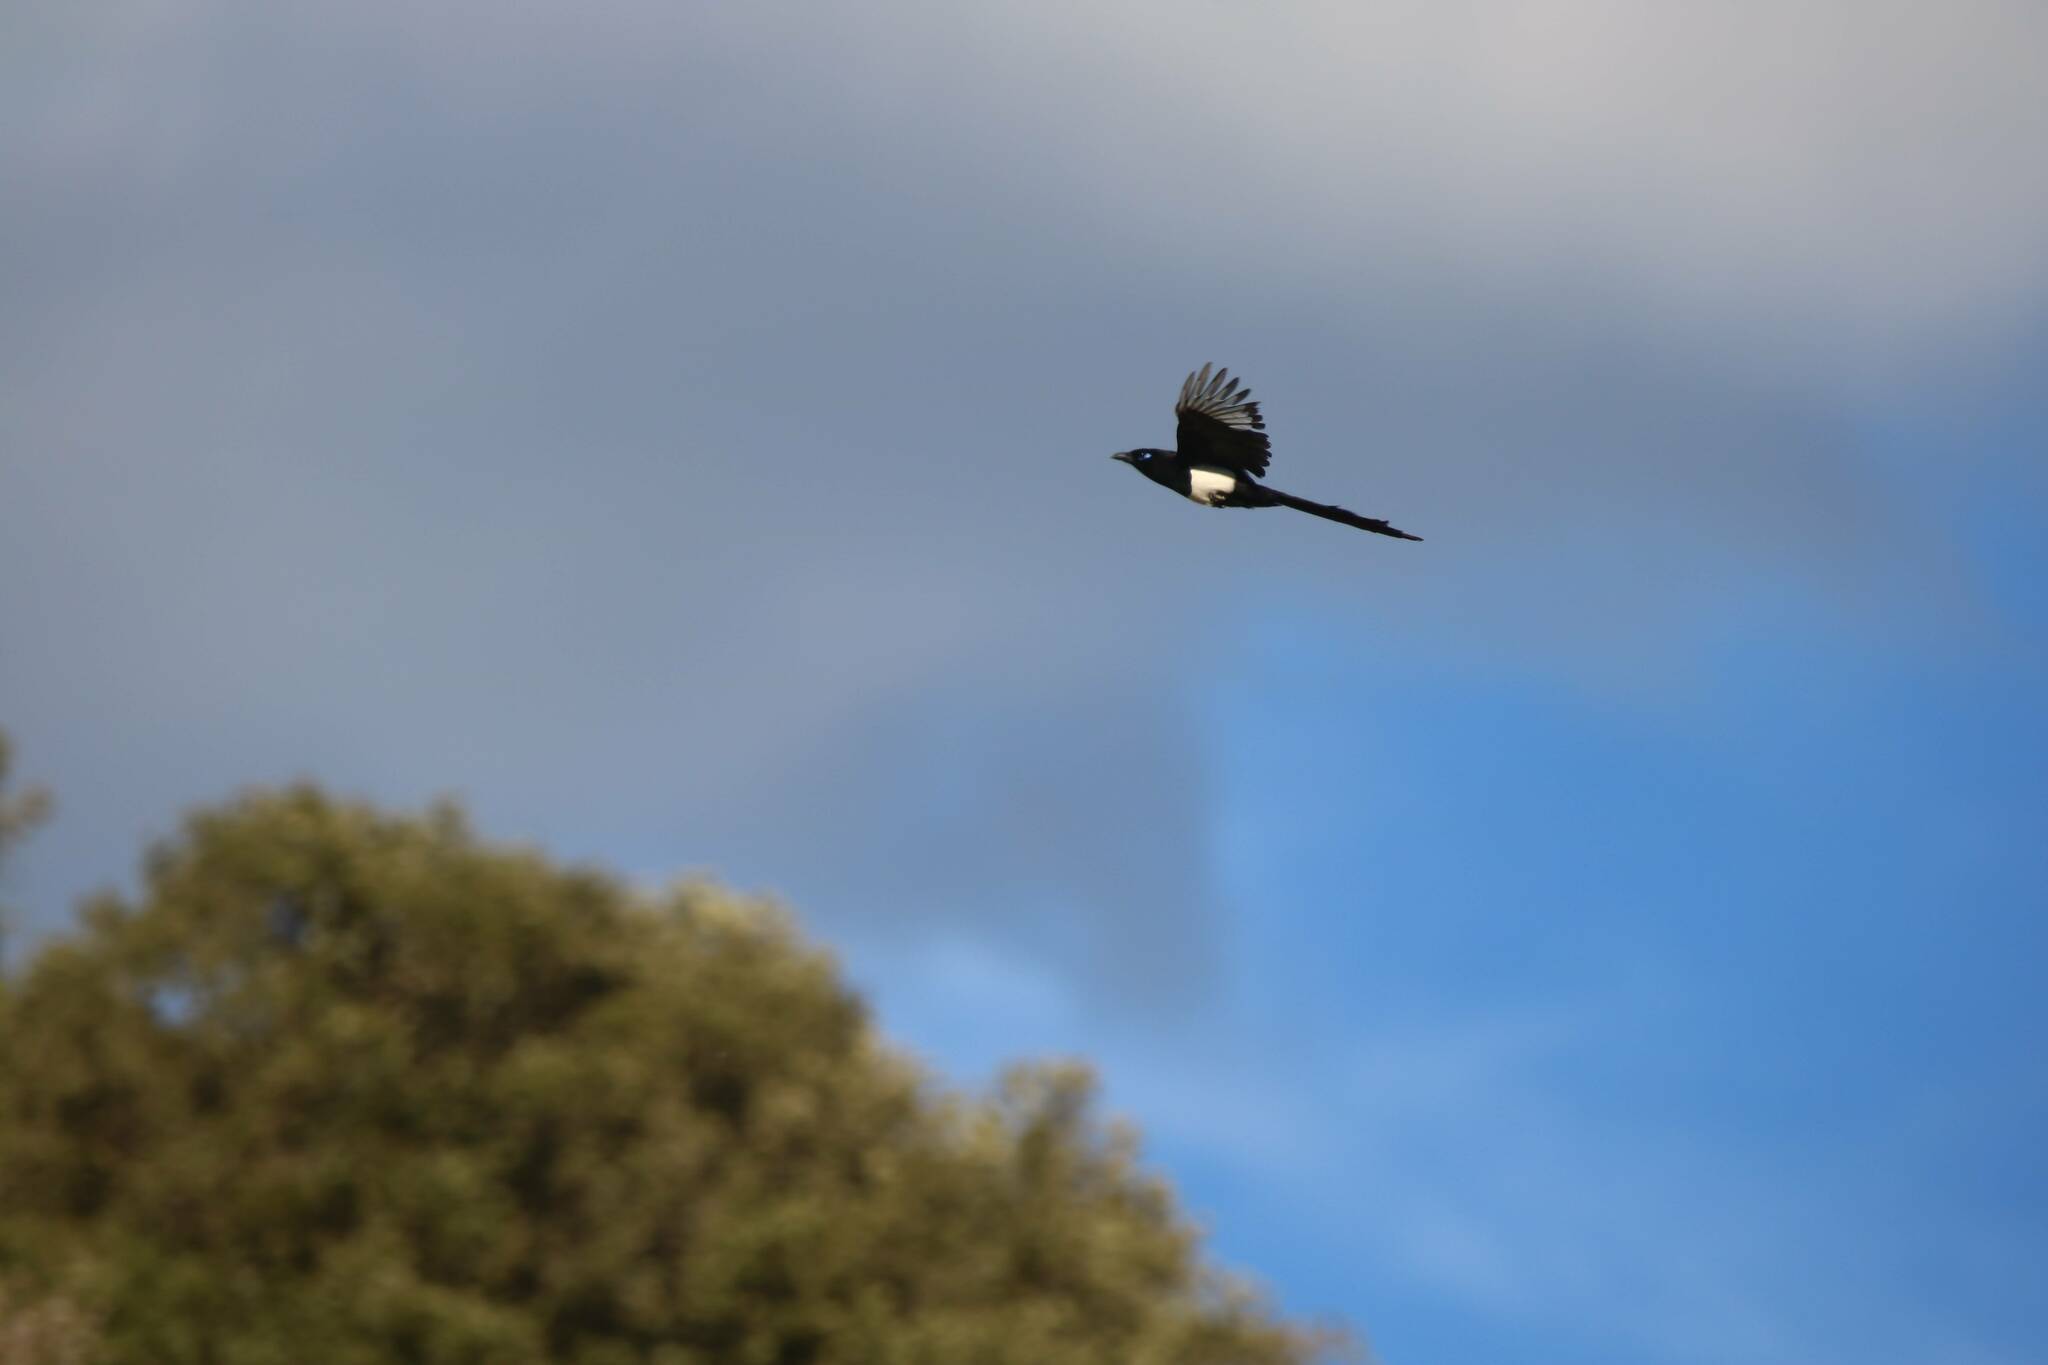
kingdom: Animalia
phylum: Chordata
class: Aves
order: Passeriformes
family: Corvidae
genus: Pica
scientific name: Pica mauritanica
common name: Maghreb magpie
